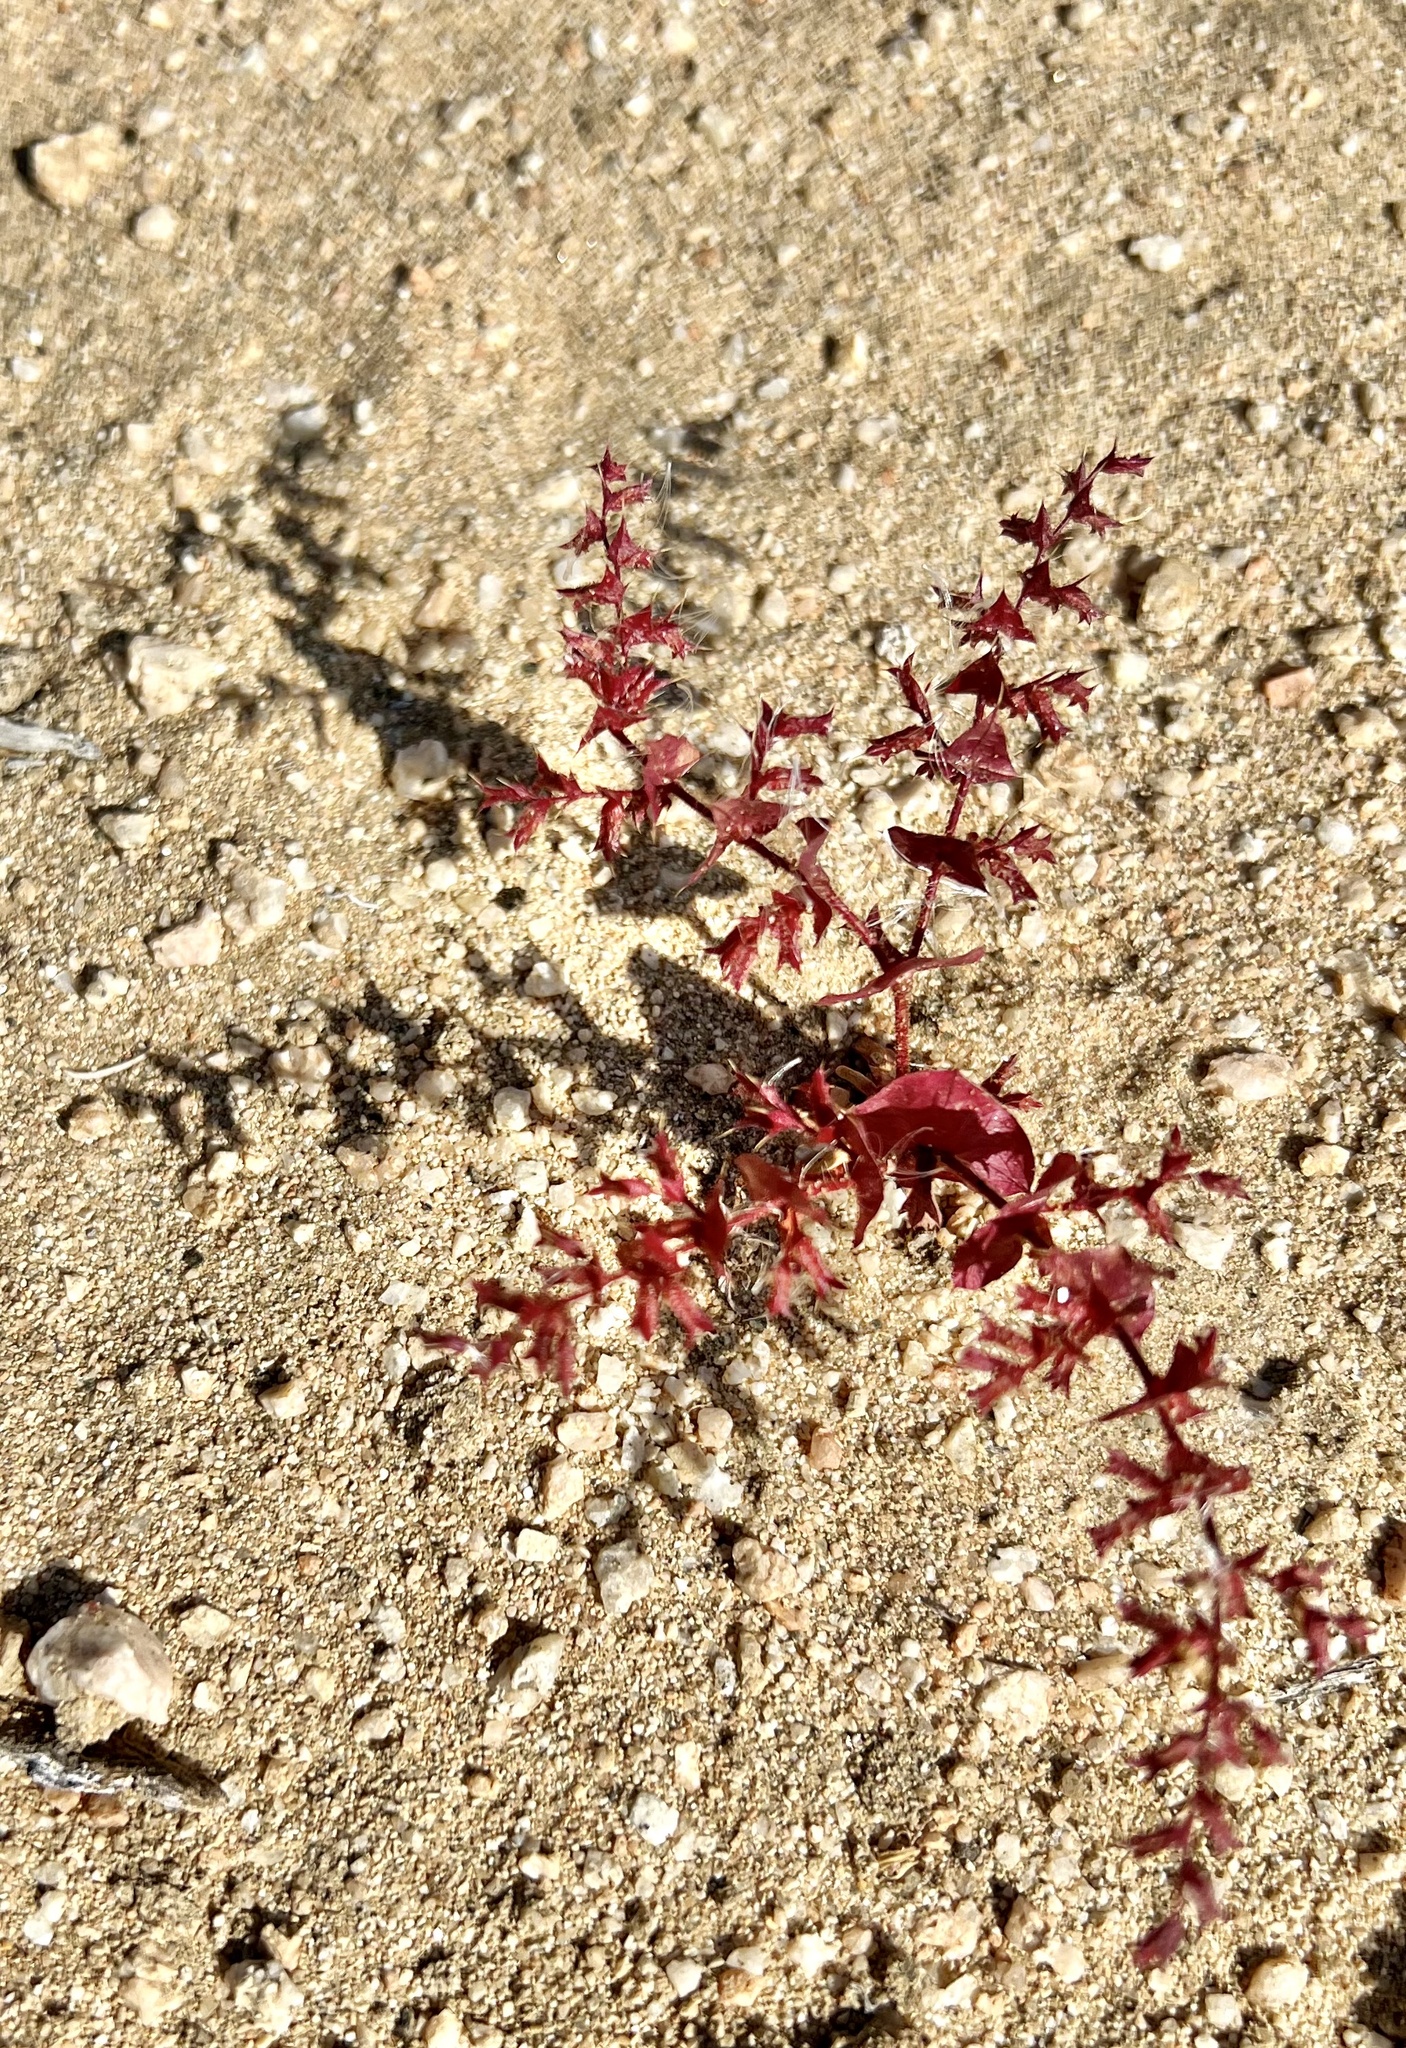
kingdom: Plantae
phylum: Tracheophyta
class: Magnoliopsida
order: Caryophyllales
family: Polygonaceae
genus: Mucronea
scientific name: Mucronea perfoliata
